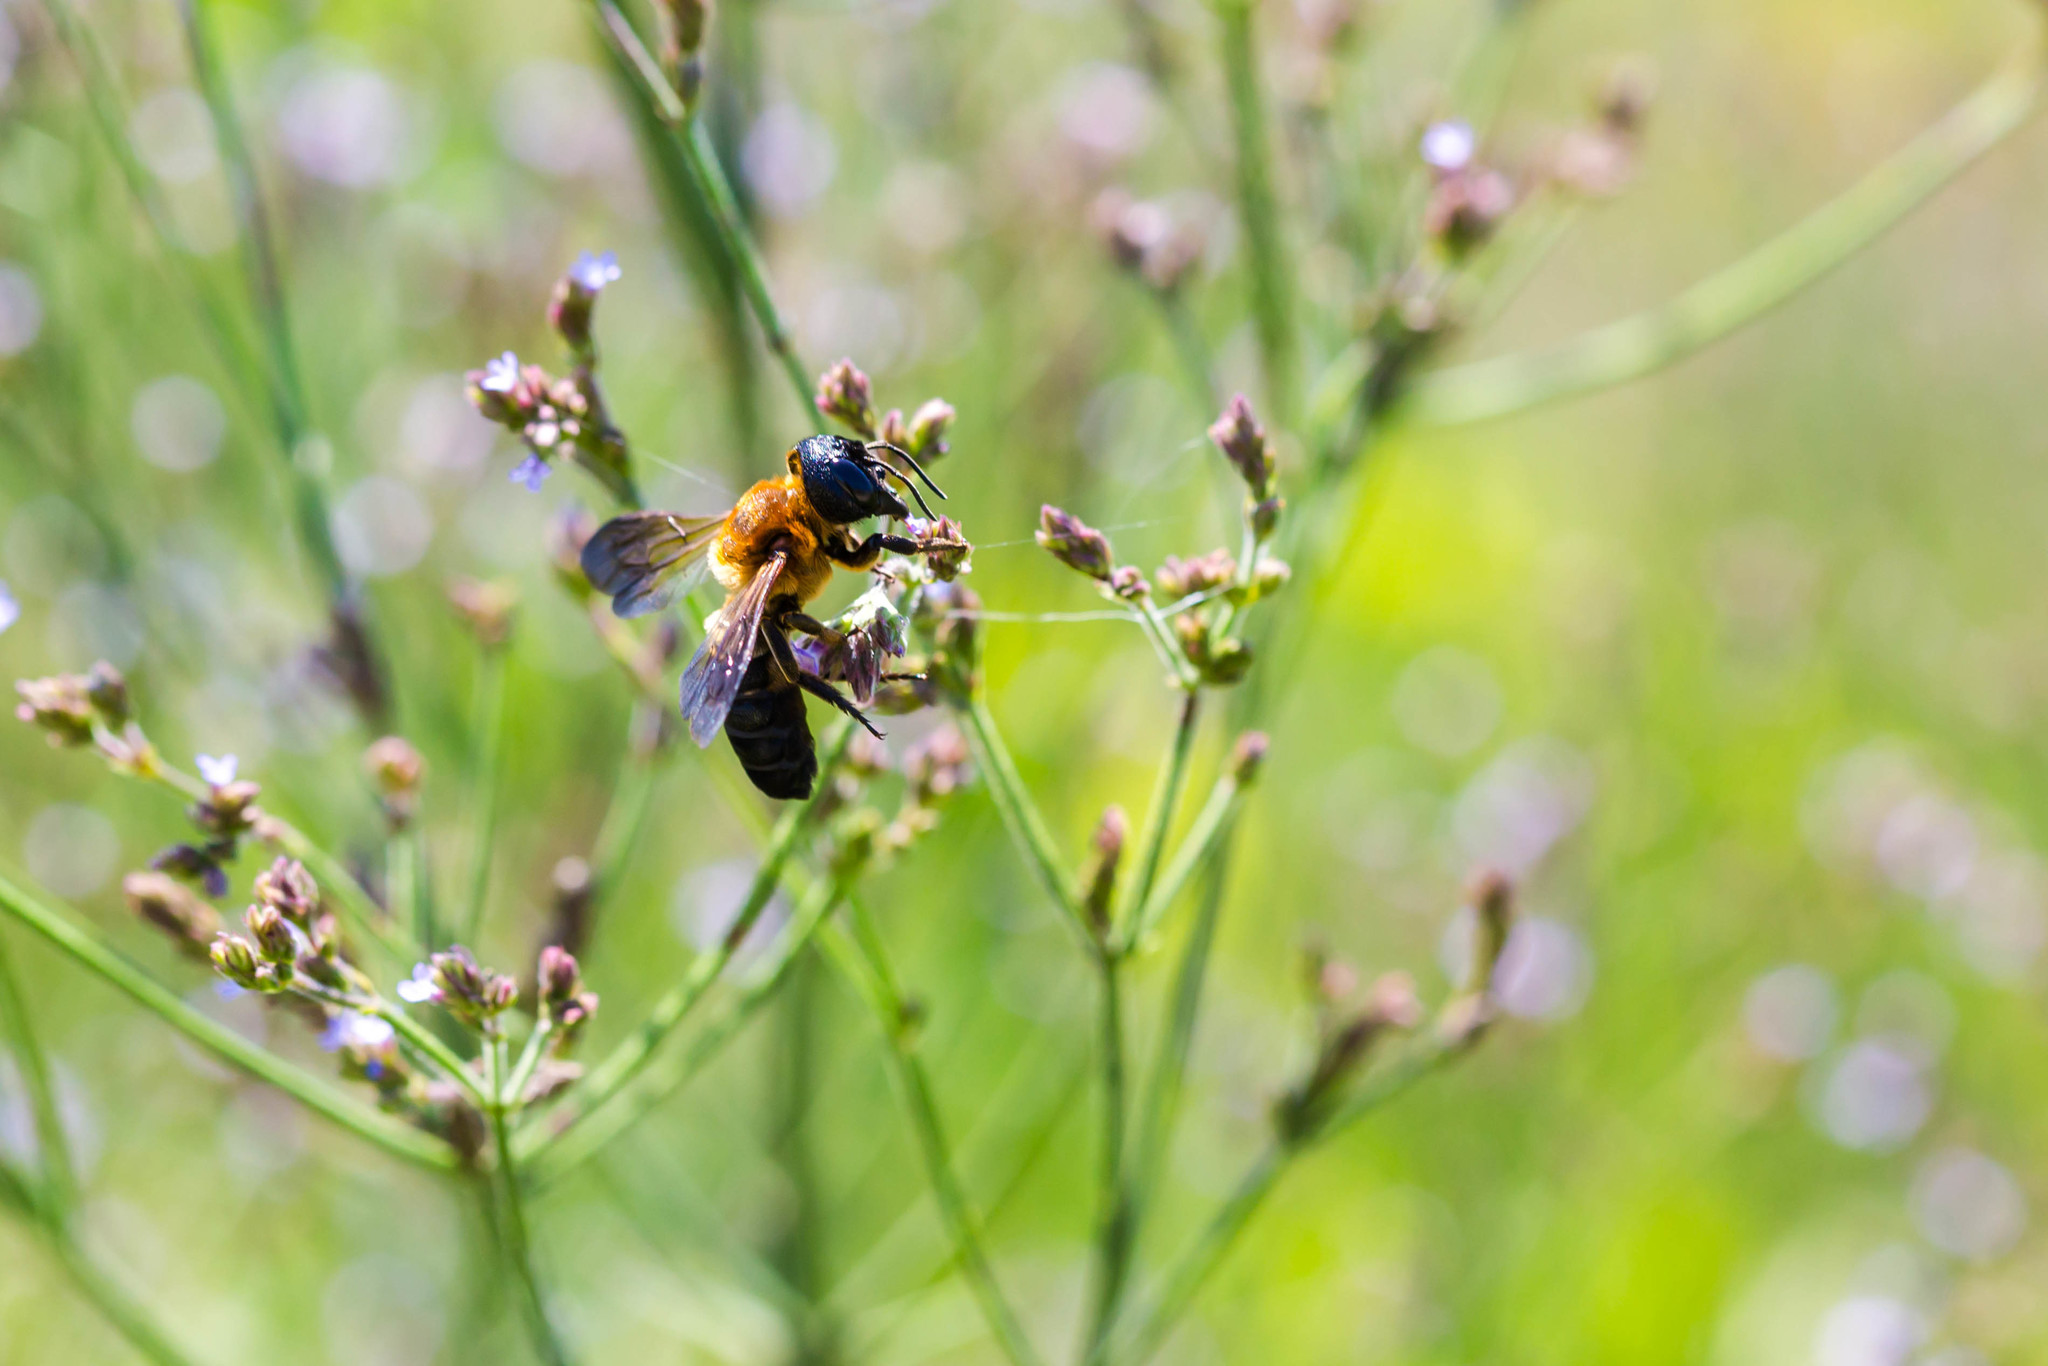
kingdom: Animalia
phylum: Arthropoda
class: Insecta
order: Hymenoptera
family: Megachilidae
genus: Megachile
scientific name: Megachile sculpturalis
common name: Sculptured resin bee
